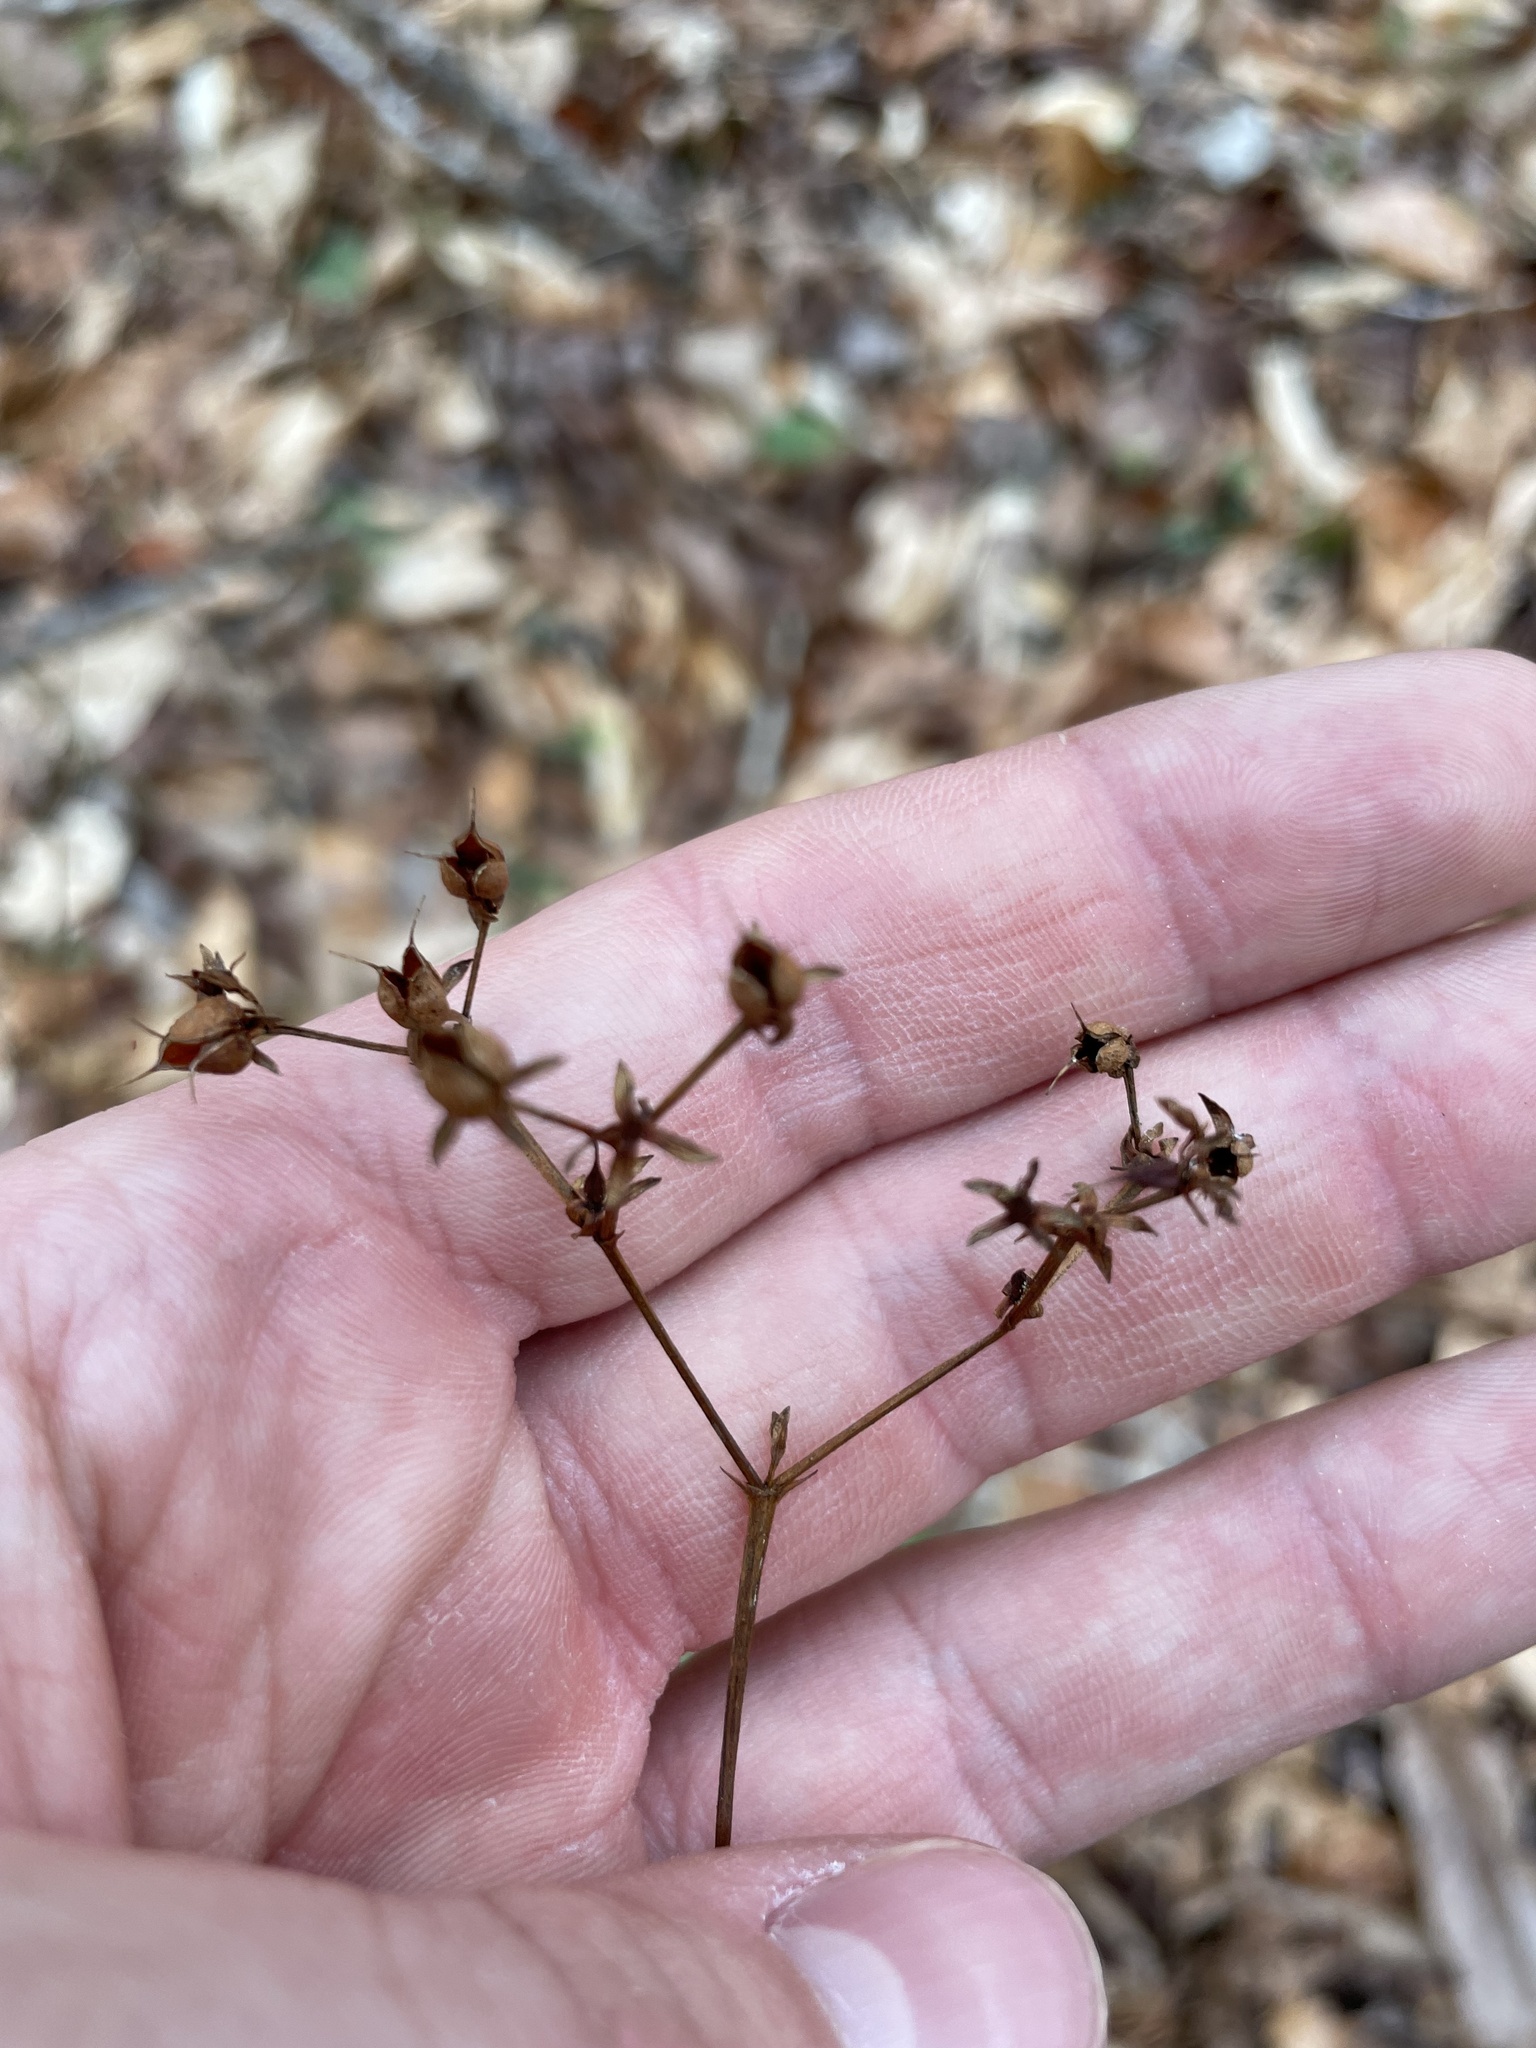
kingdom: Plantae
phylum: Tracheophyta
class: Magnoliopsida
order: Malpighiales
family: Hypericaceae
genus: Hypericum
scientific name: Hypericum nudiflorum
